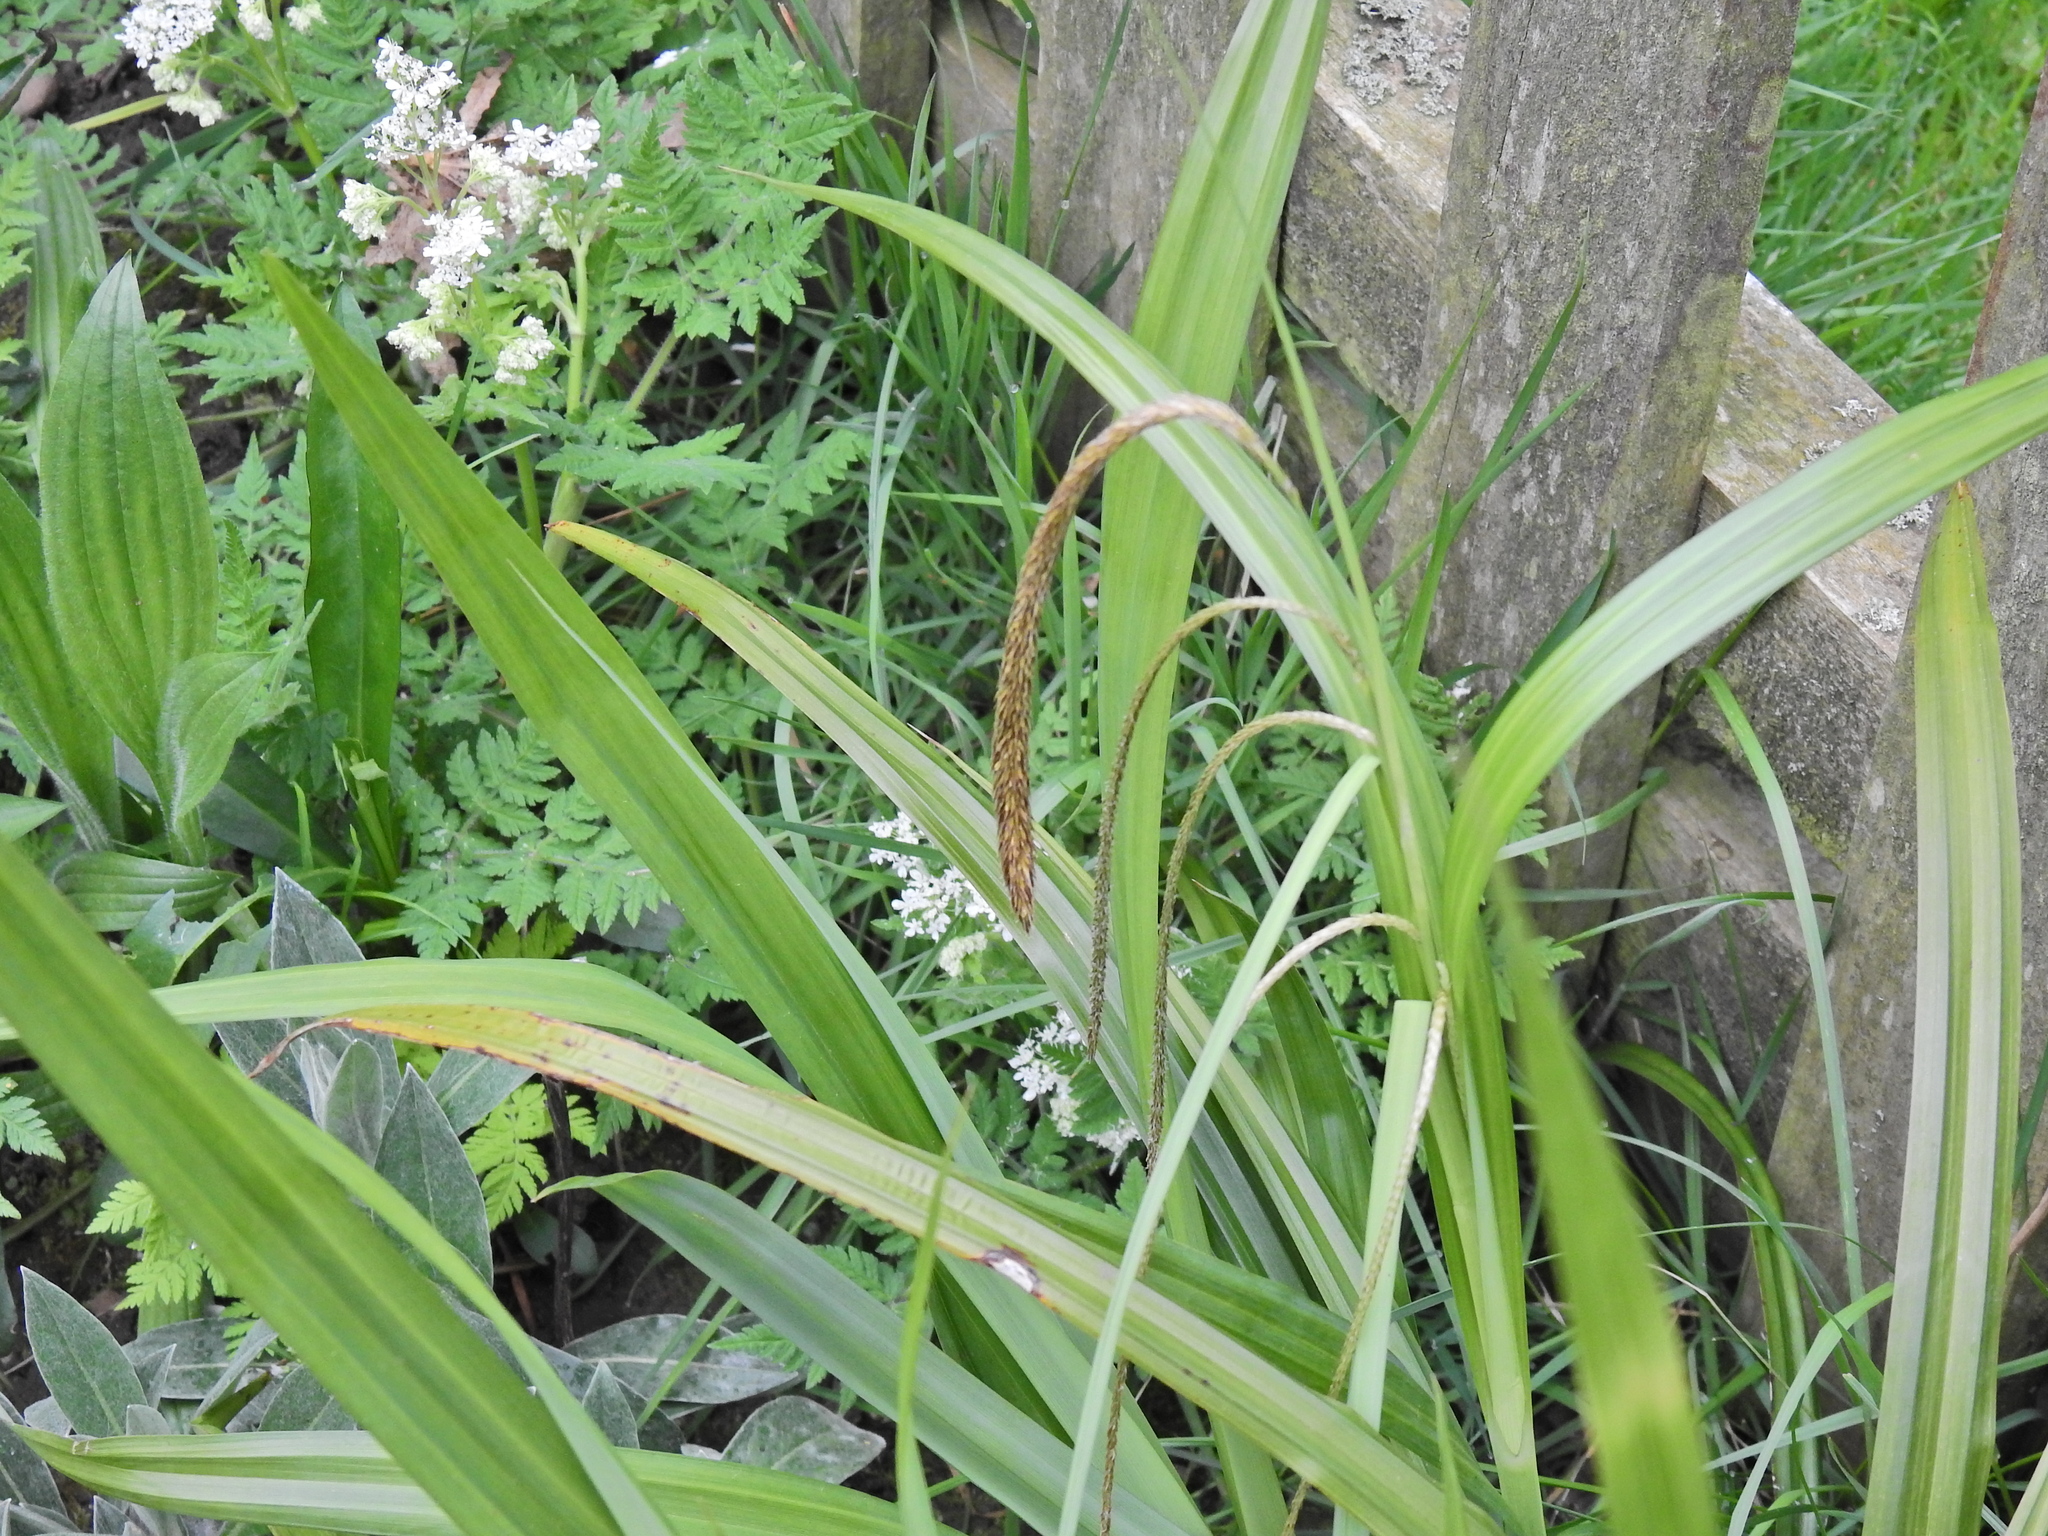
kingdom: Plantae
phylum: Tracheophyta
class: Liliopsida
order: Poales
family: Cyperaceae
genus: Carex
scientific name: Carex pendula
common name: Pendulous sedge
